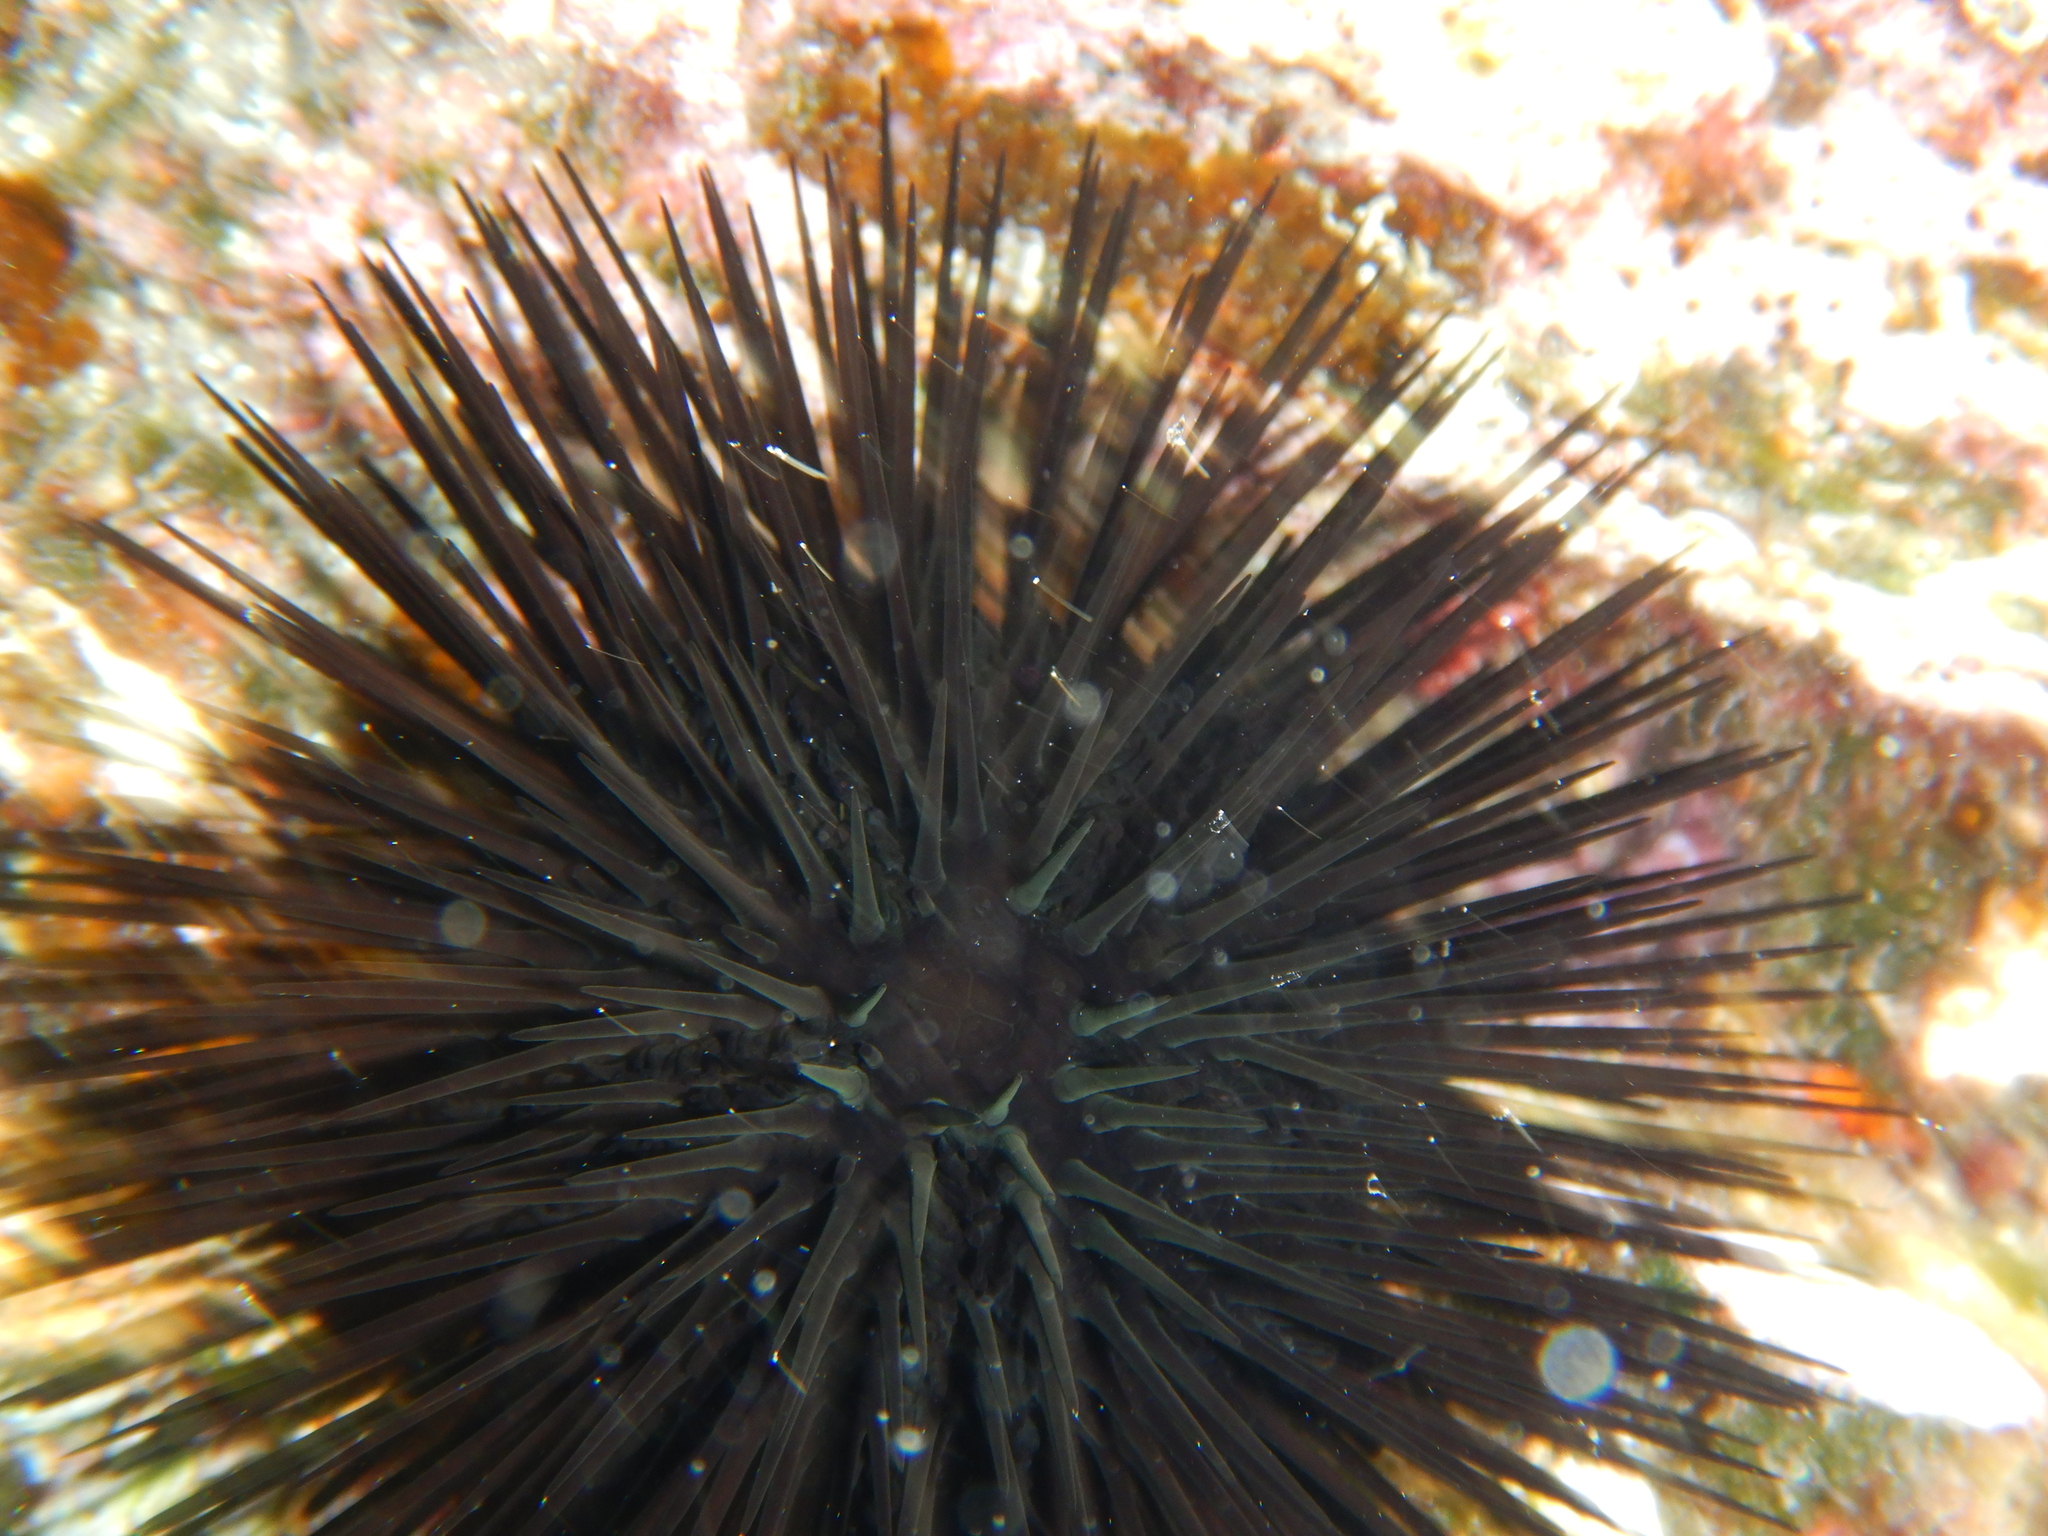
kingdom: Animalia
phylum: Echinodermata
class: Echinoidea
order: Arbacioida
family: Arbaciidae
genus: Arbacia
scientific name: Arbacia lixula
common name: Black sea urchin
